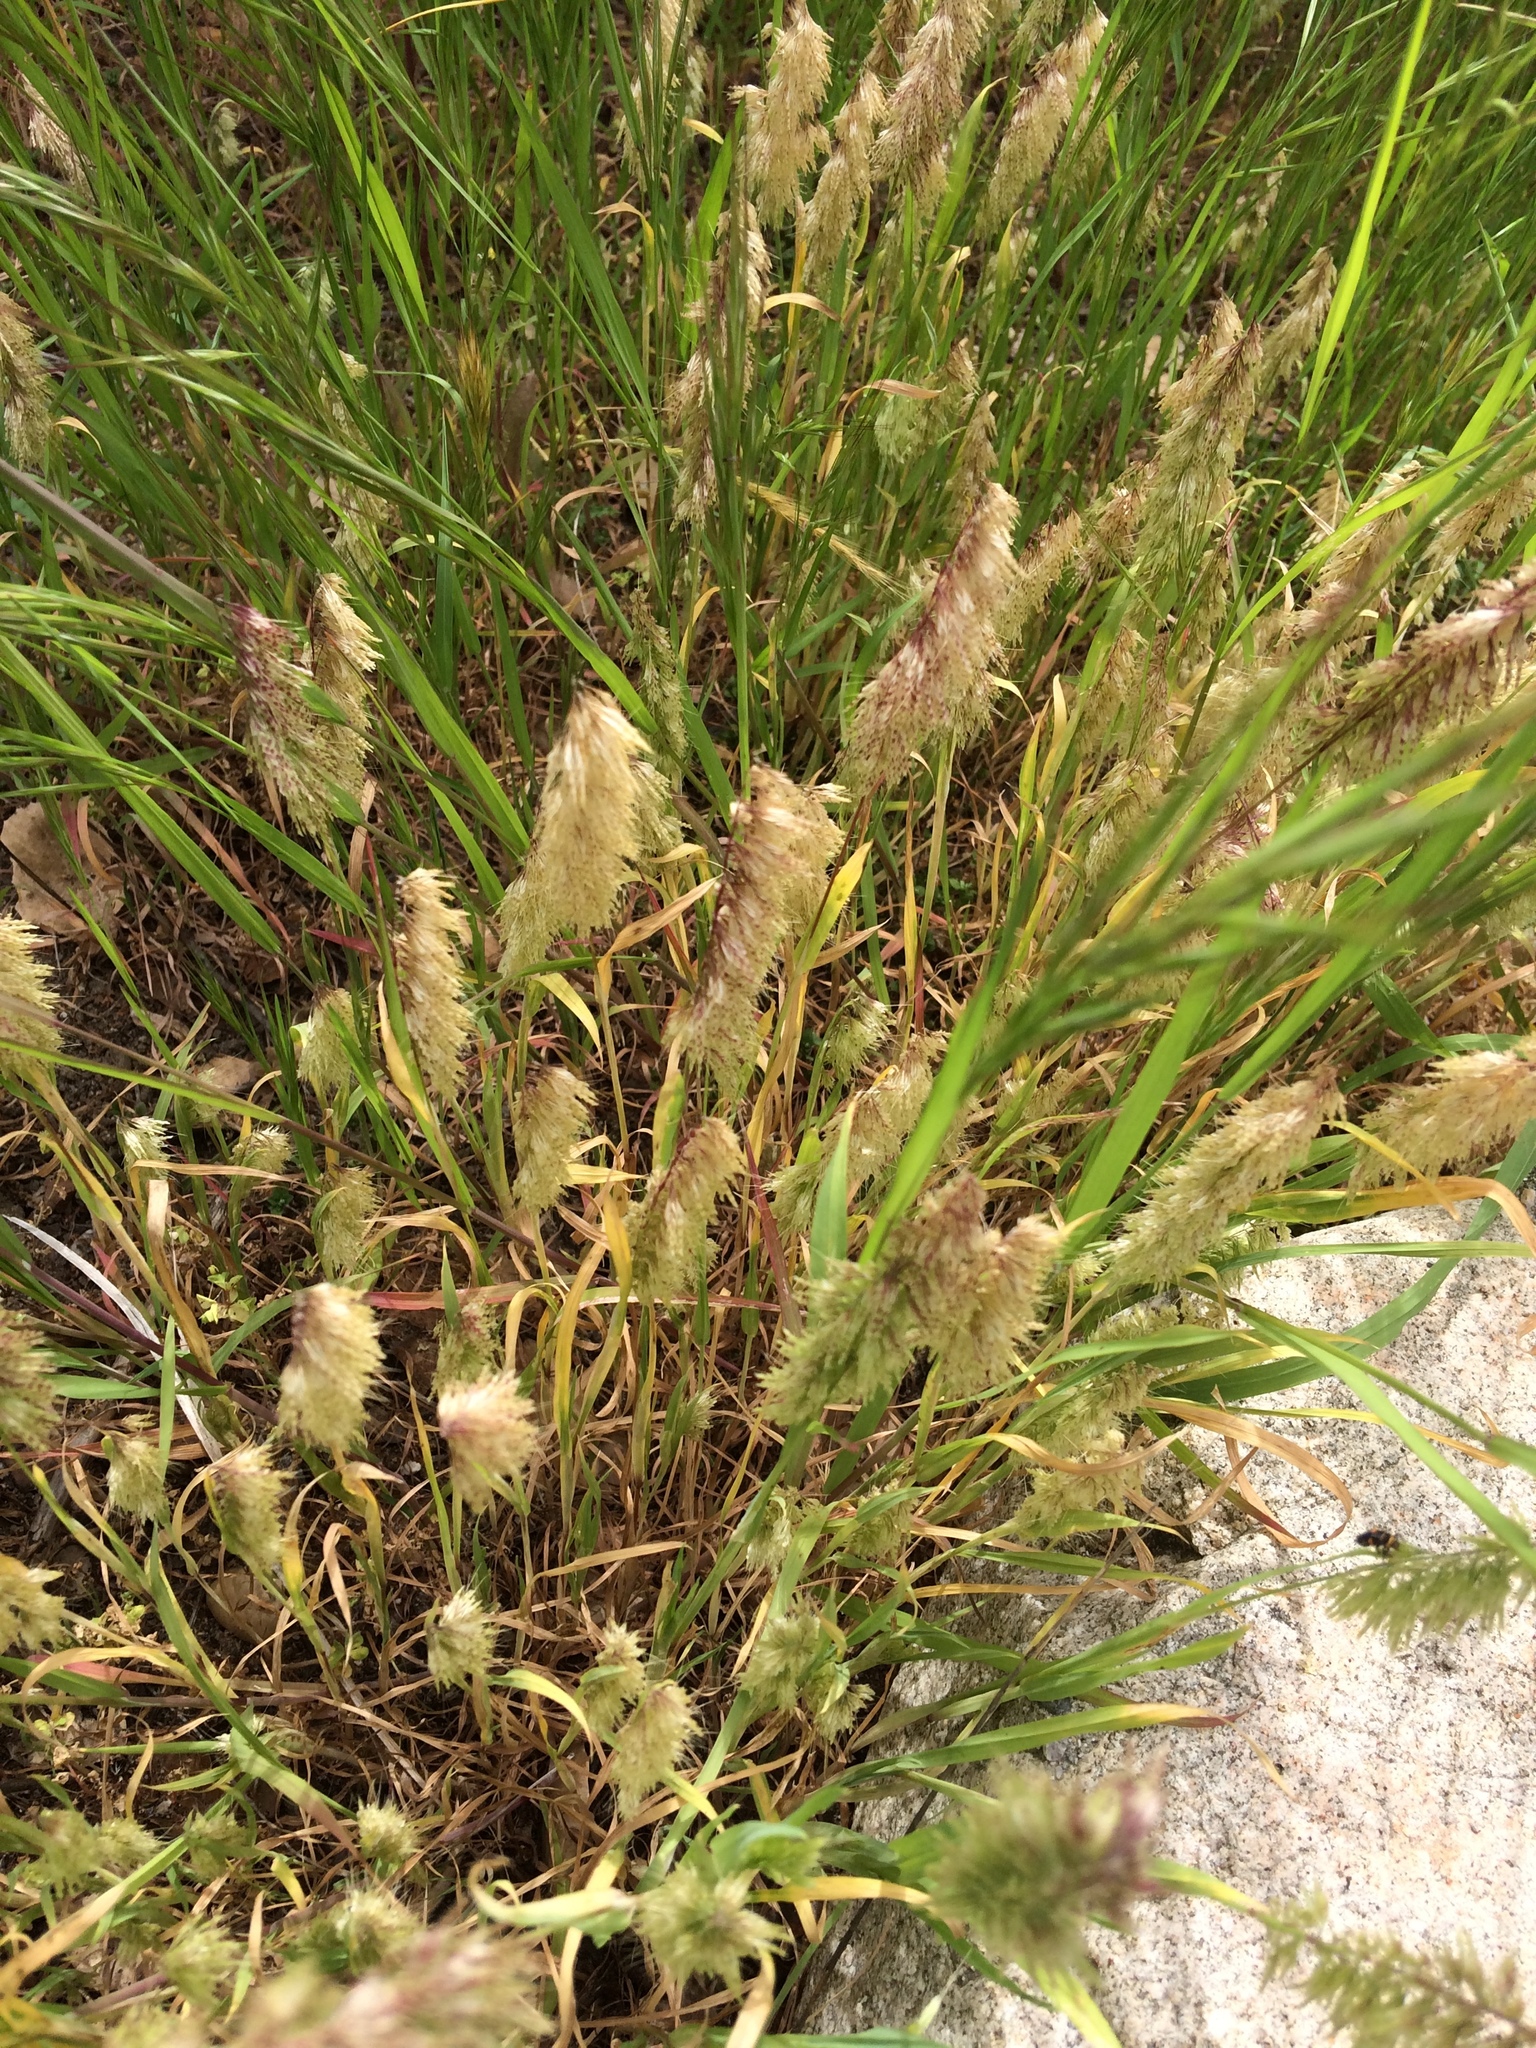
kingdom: Plantae
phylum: Tracheophyta
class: Liliopsida
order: Poales
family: Poaceae
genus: Lamarckia
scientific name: Lamarckia aurea
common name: Golden dog's-tail
